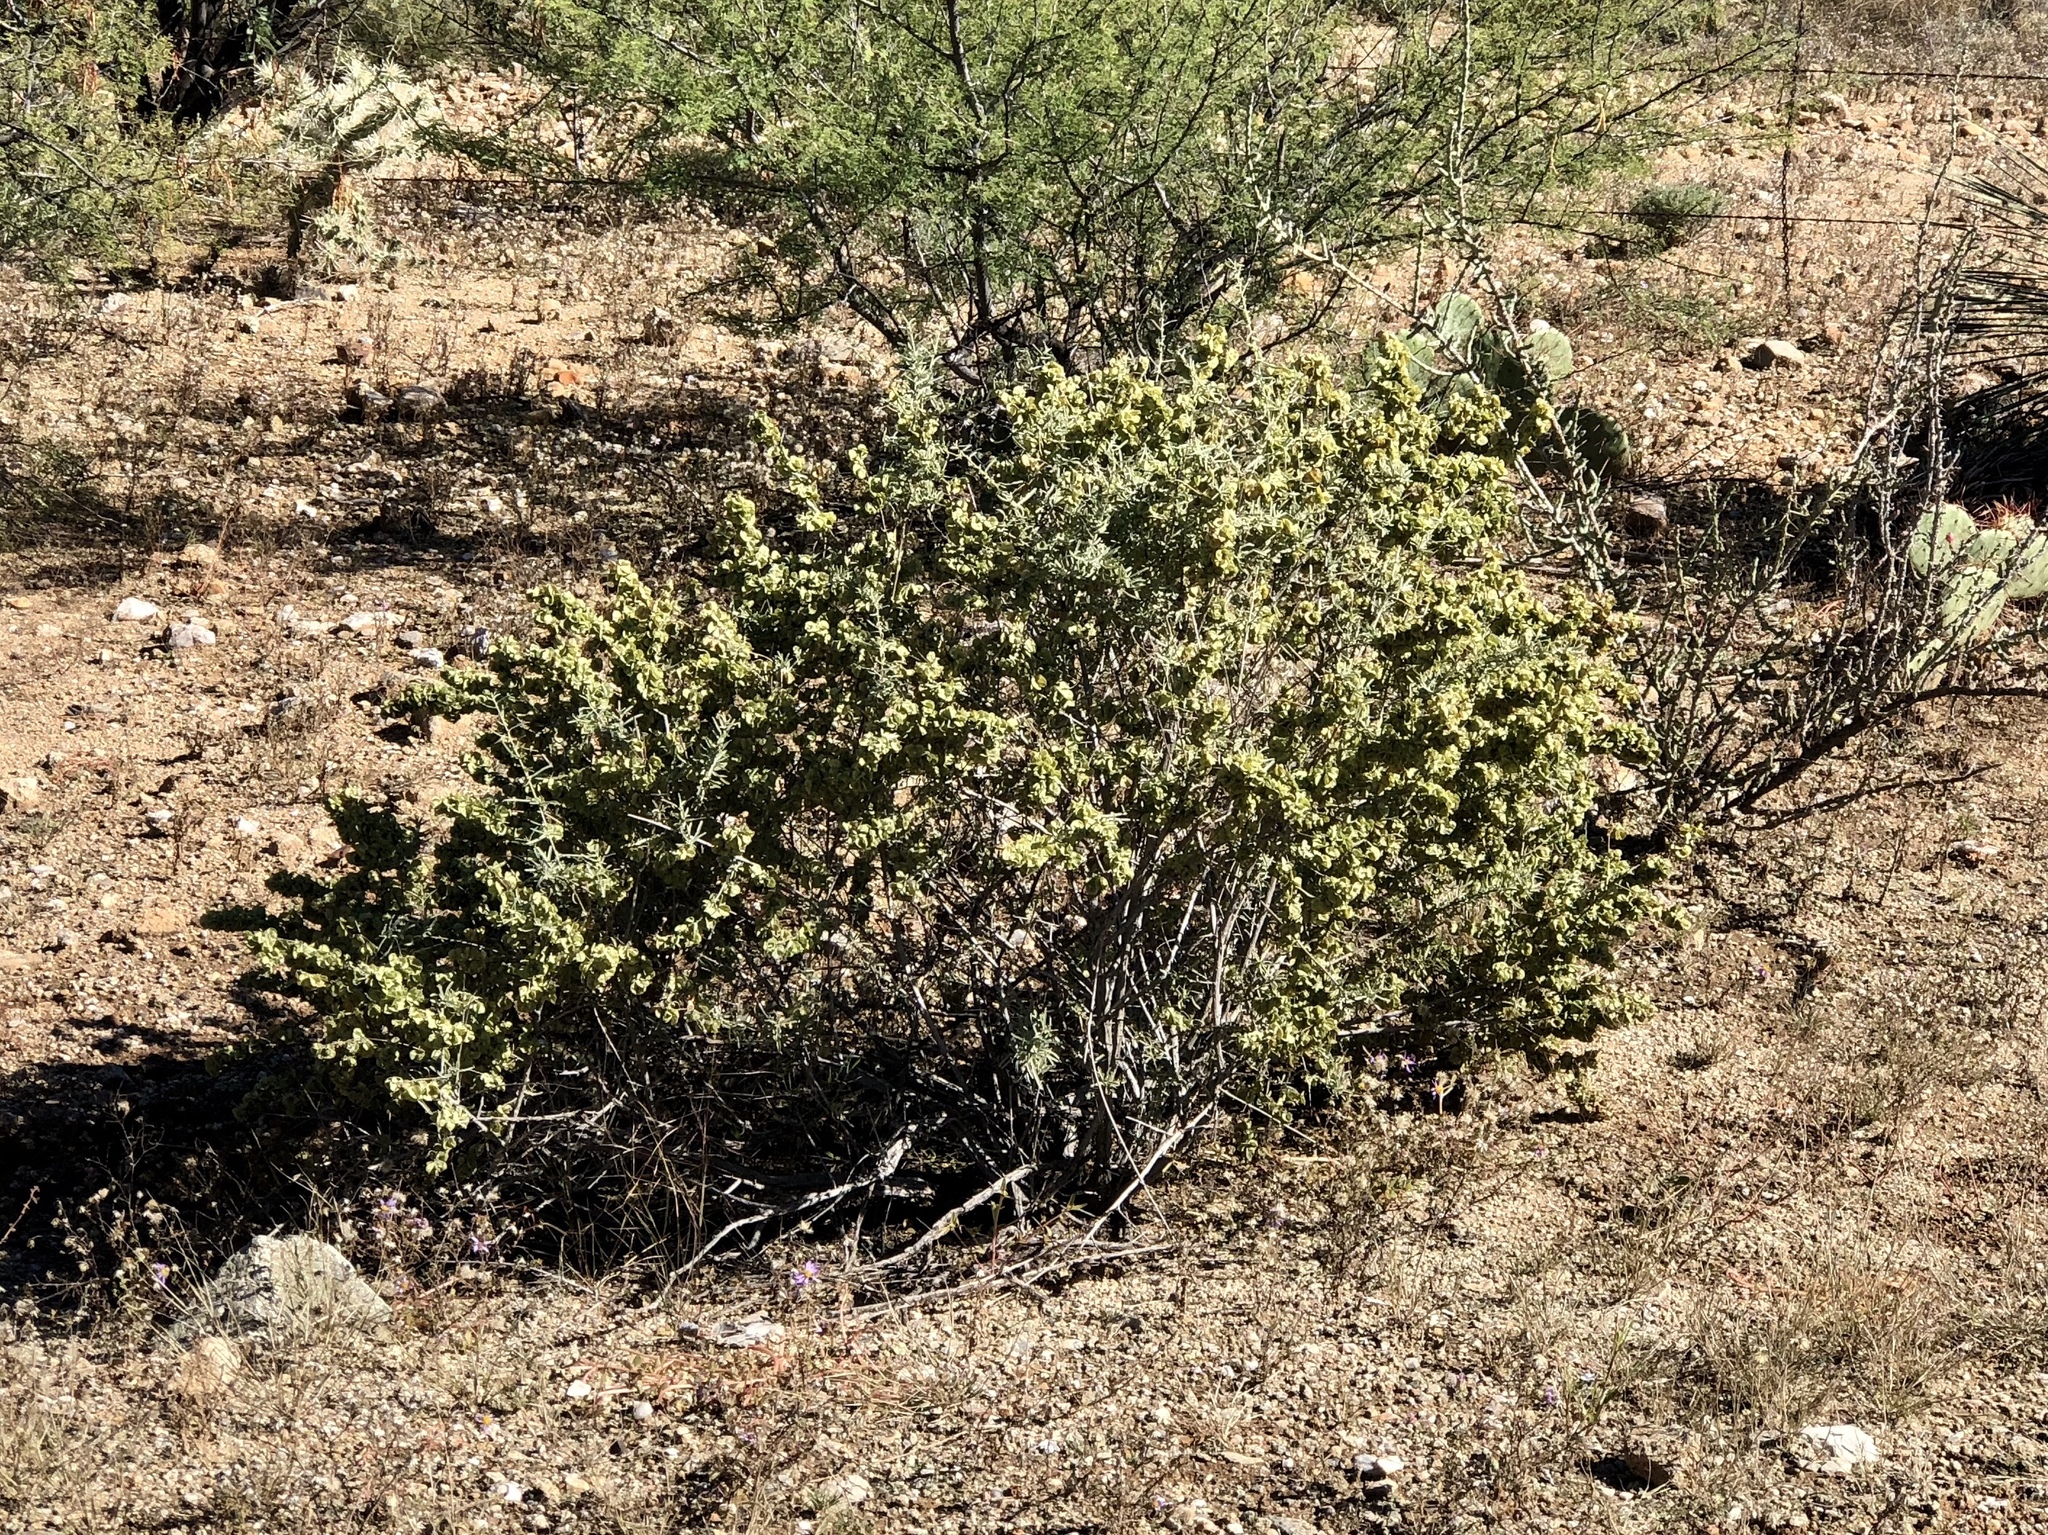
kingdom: Plantae
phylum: Tracheophyta
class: Magnoliopsida
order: Caryophyllales
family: Amaranthaceae
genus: Atriplex
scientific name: Atriplex canescens
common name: Four-wing saltbush
